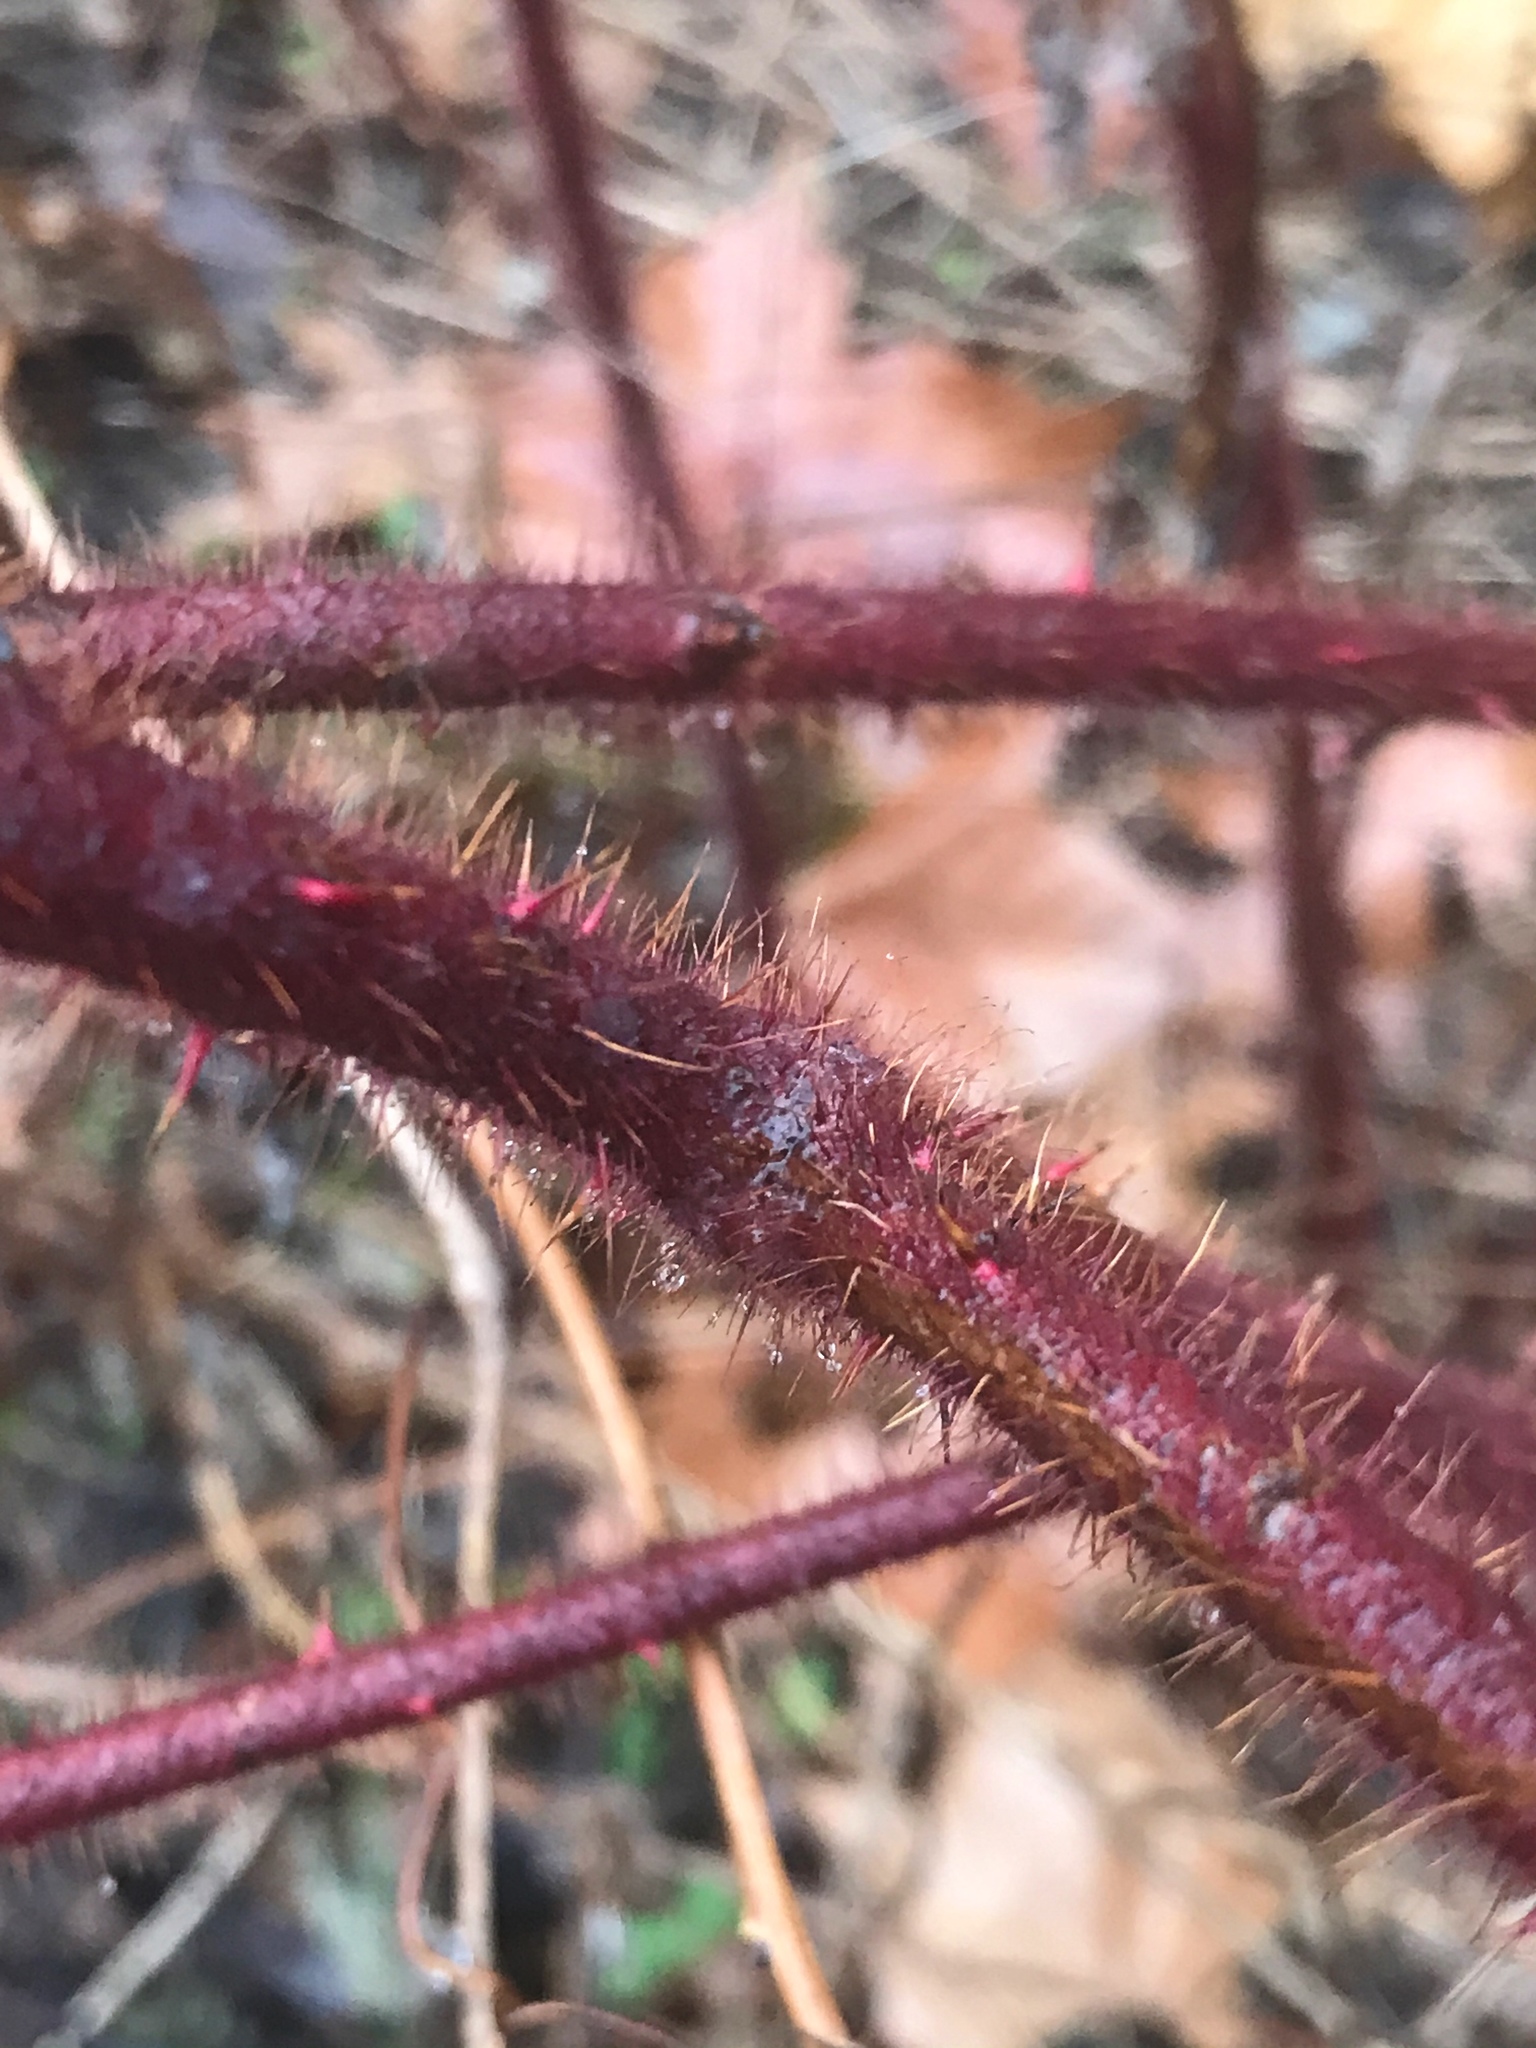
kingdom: Plantae
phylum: Tracheophyta
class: Magnoliopsida
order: Rosales
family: Rosaceae
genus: Rubus
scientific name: Rubus phoenicolasius
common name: Japanese wineberry
